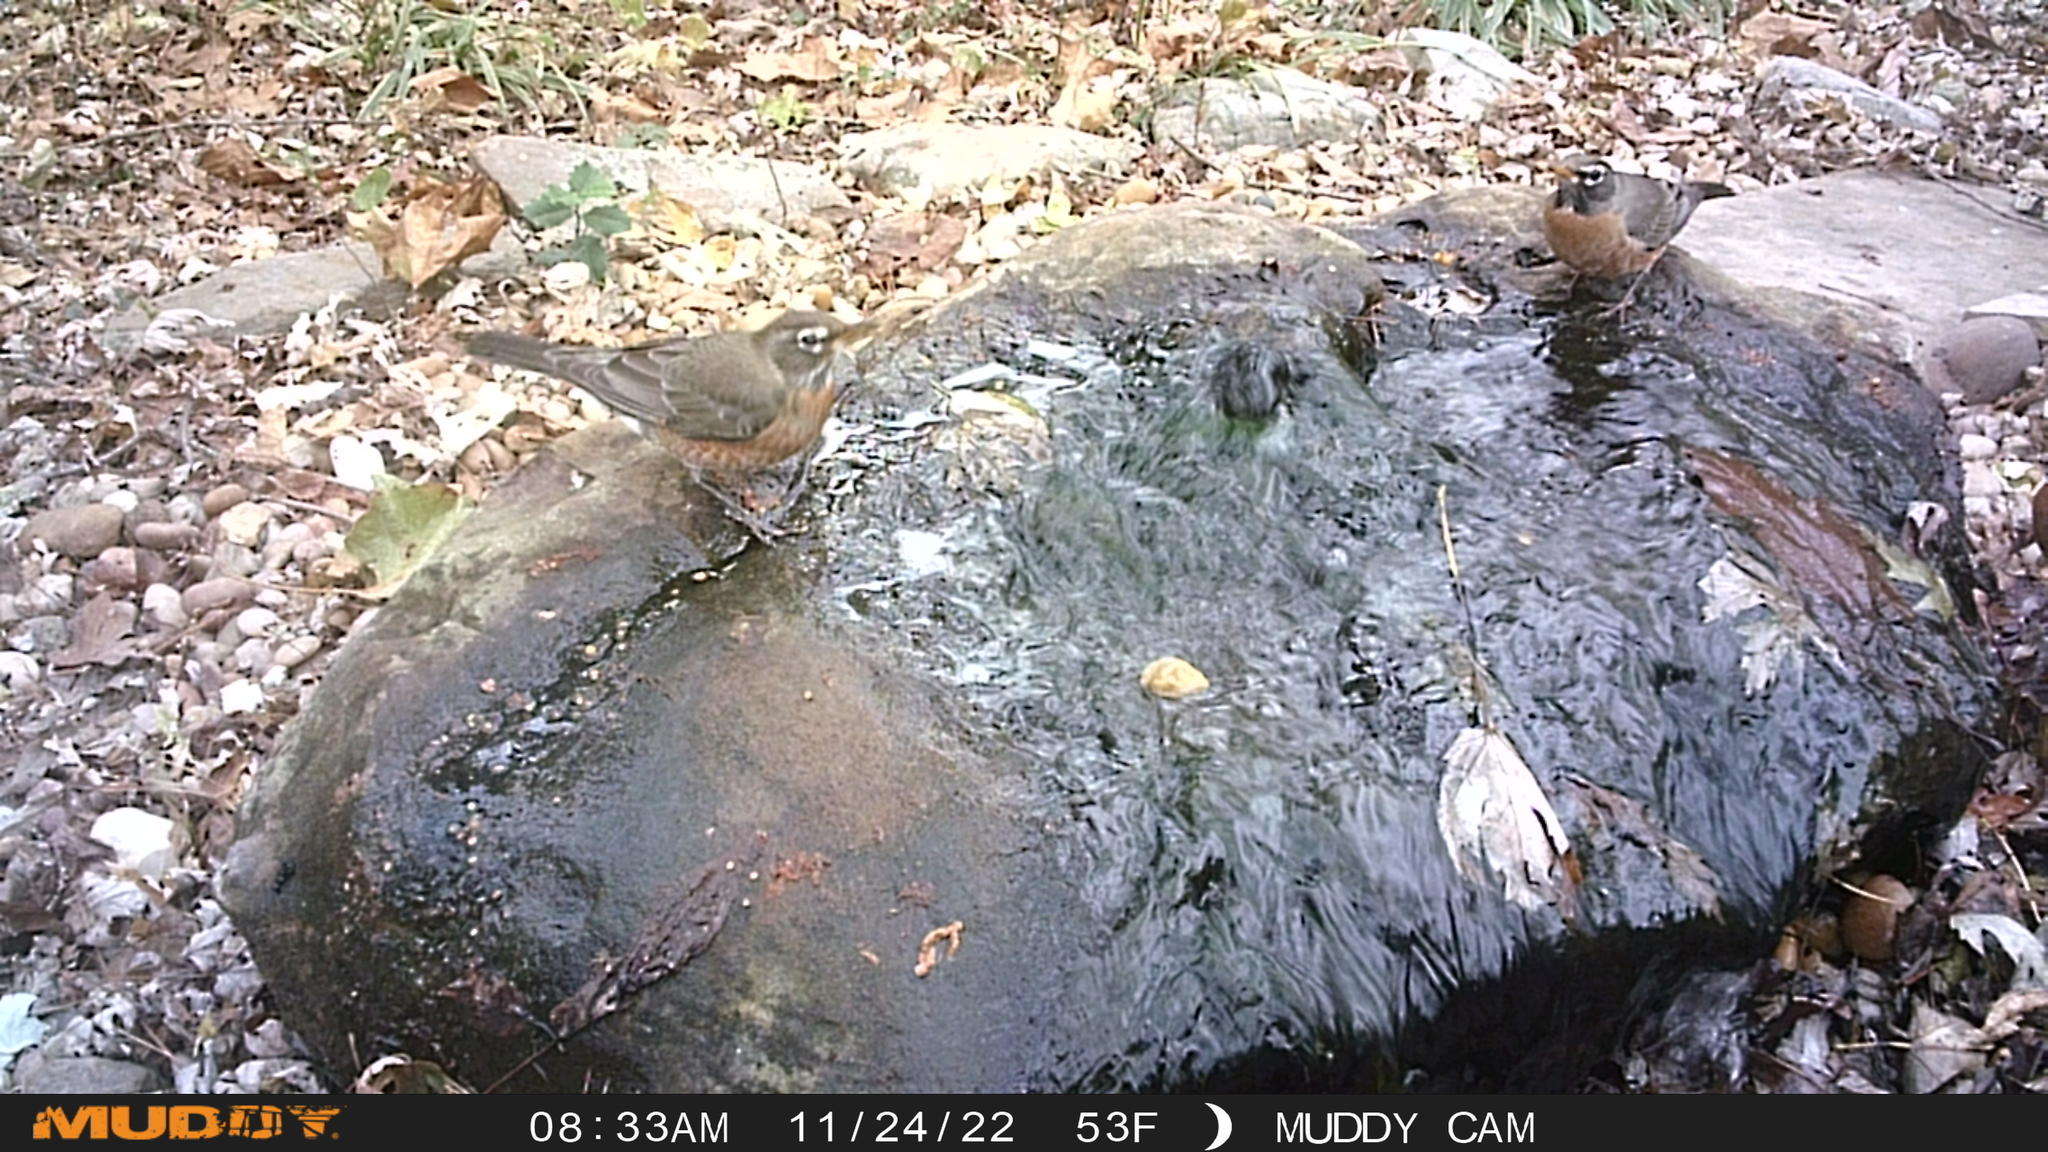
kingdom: Animalia
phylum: Chordata
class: Aves
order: Passeriformes
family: Turdidae
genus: Turdus
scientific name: Turdus migratorius
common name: American robin
